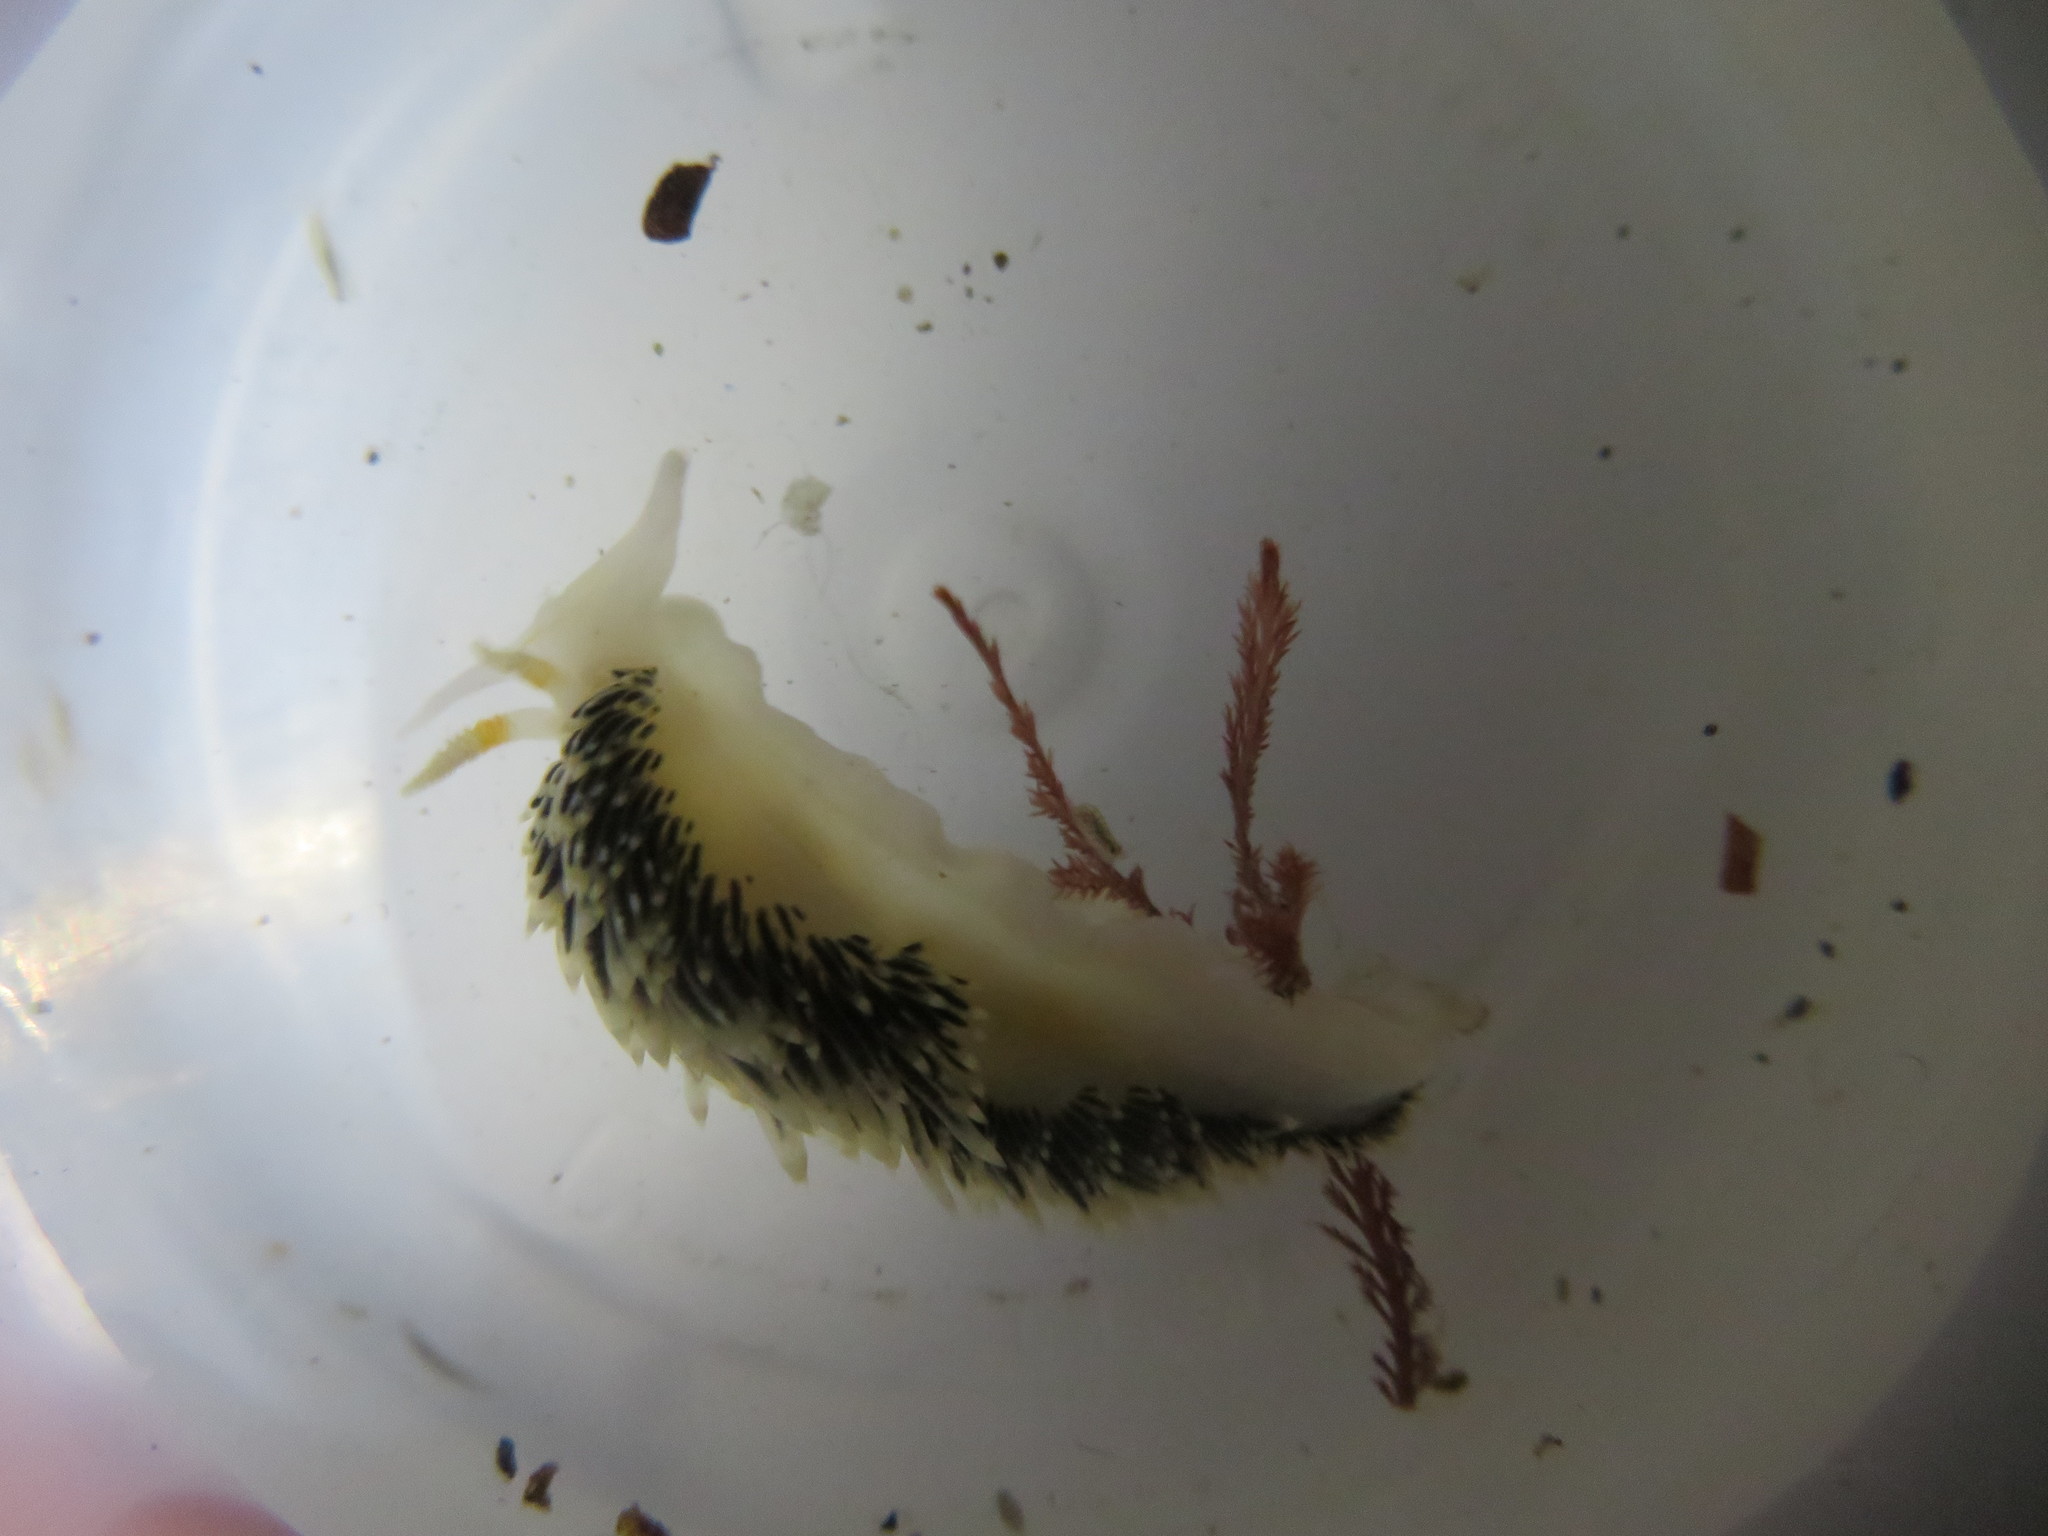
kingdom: Animalia
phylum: Mollusca
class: Gastropoda
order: Nudibranchia
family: Facelinidae
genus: Phidiana
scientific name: Phidiana hiltoni
